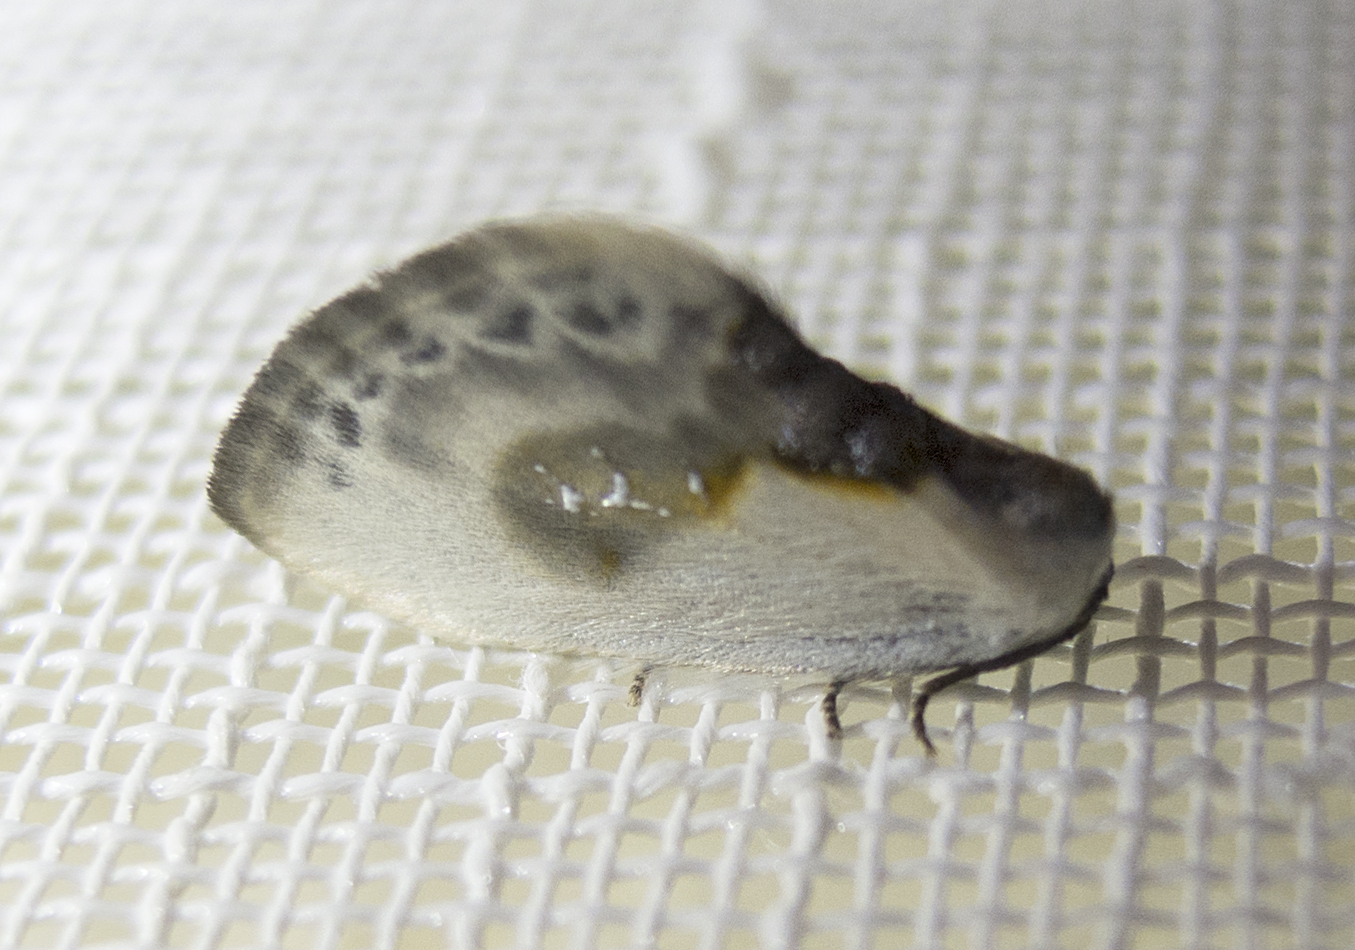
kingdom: Animalia
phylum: Arthropoda
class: Insecta
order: Lepidoptera
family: Drepanidae
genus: Cilix
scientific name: Cilix glaucata
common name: Chinese character
